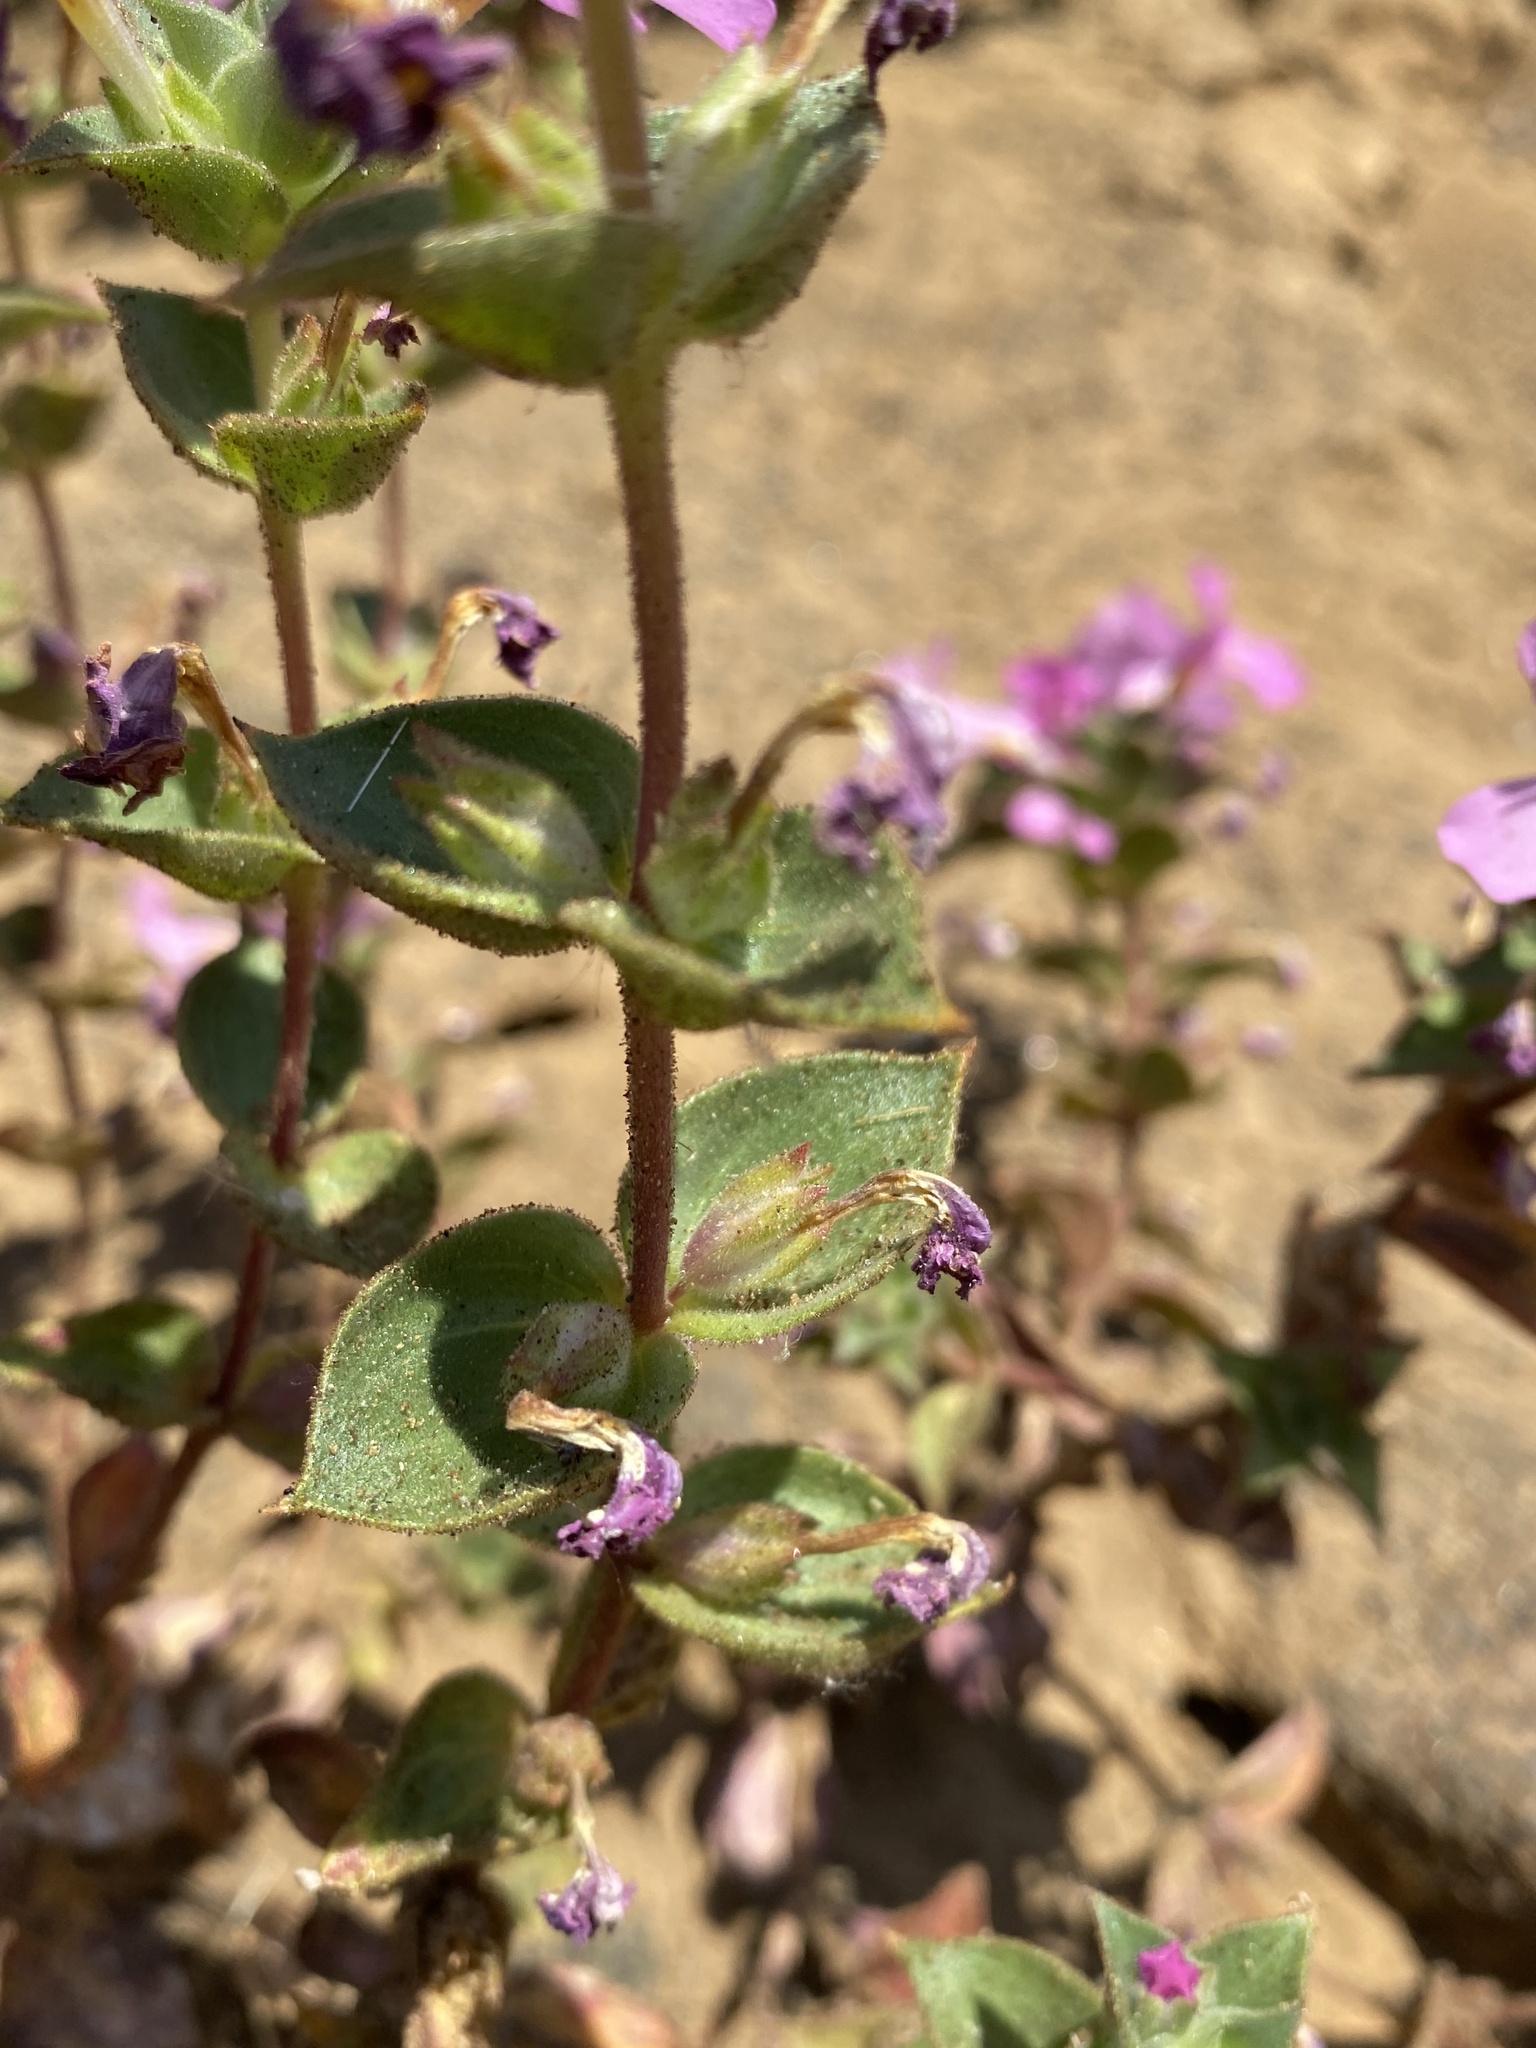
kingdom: Plantae
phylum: Tracheophyta
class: Magnoliopsida
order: Lamiales
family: Phrymaceae
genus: Diplacus
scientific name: Diplacus cusickioides
